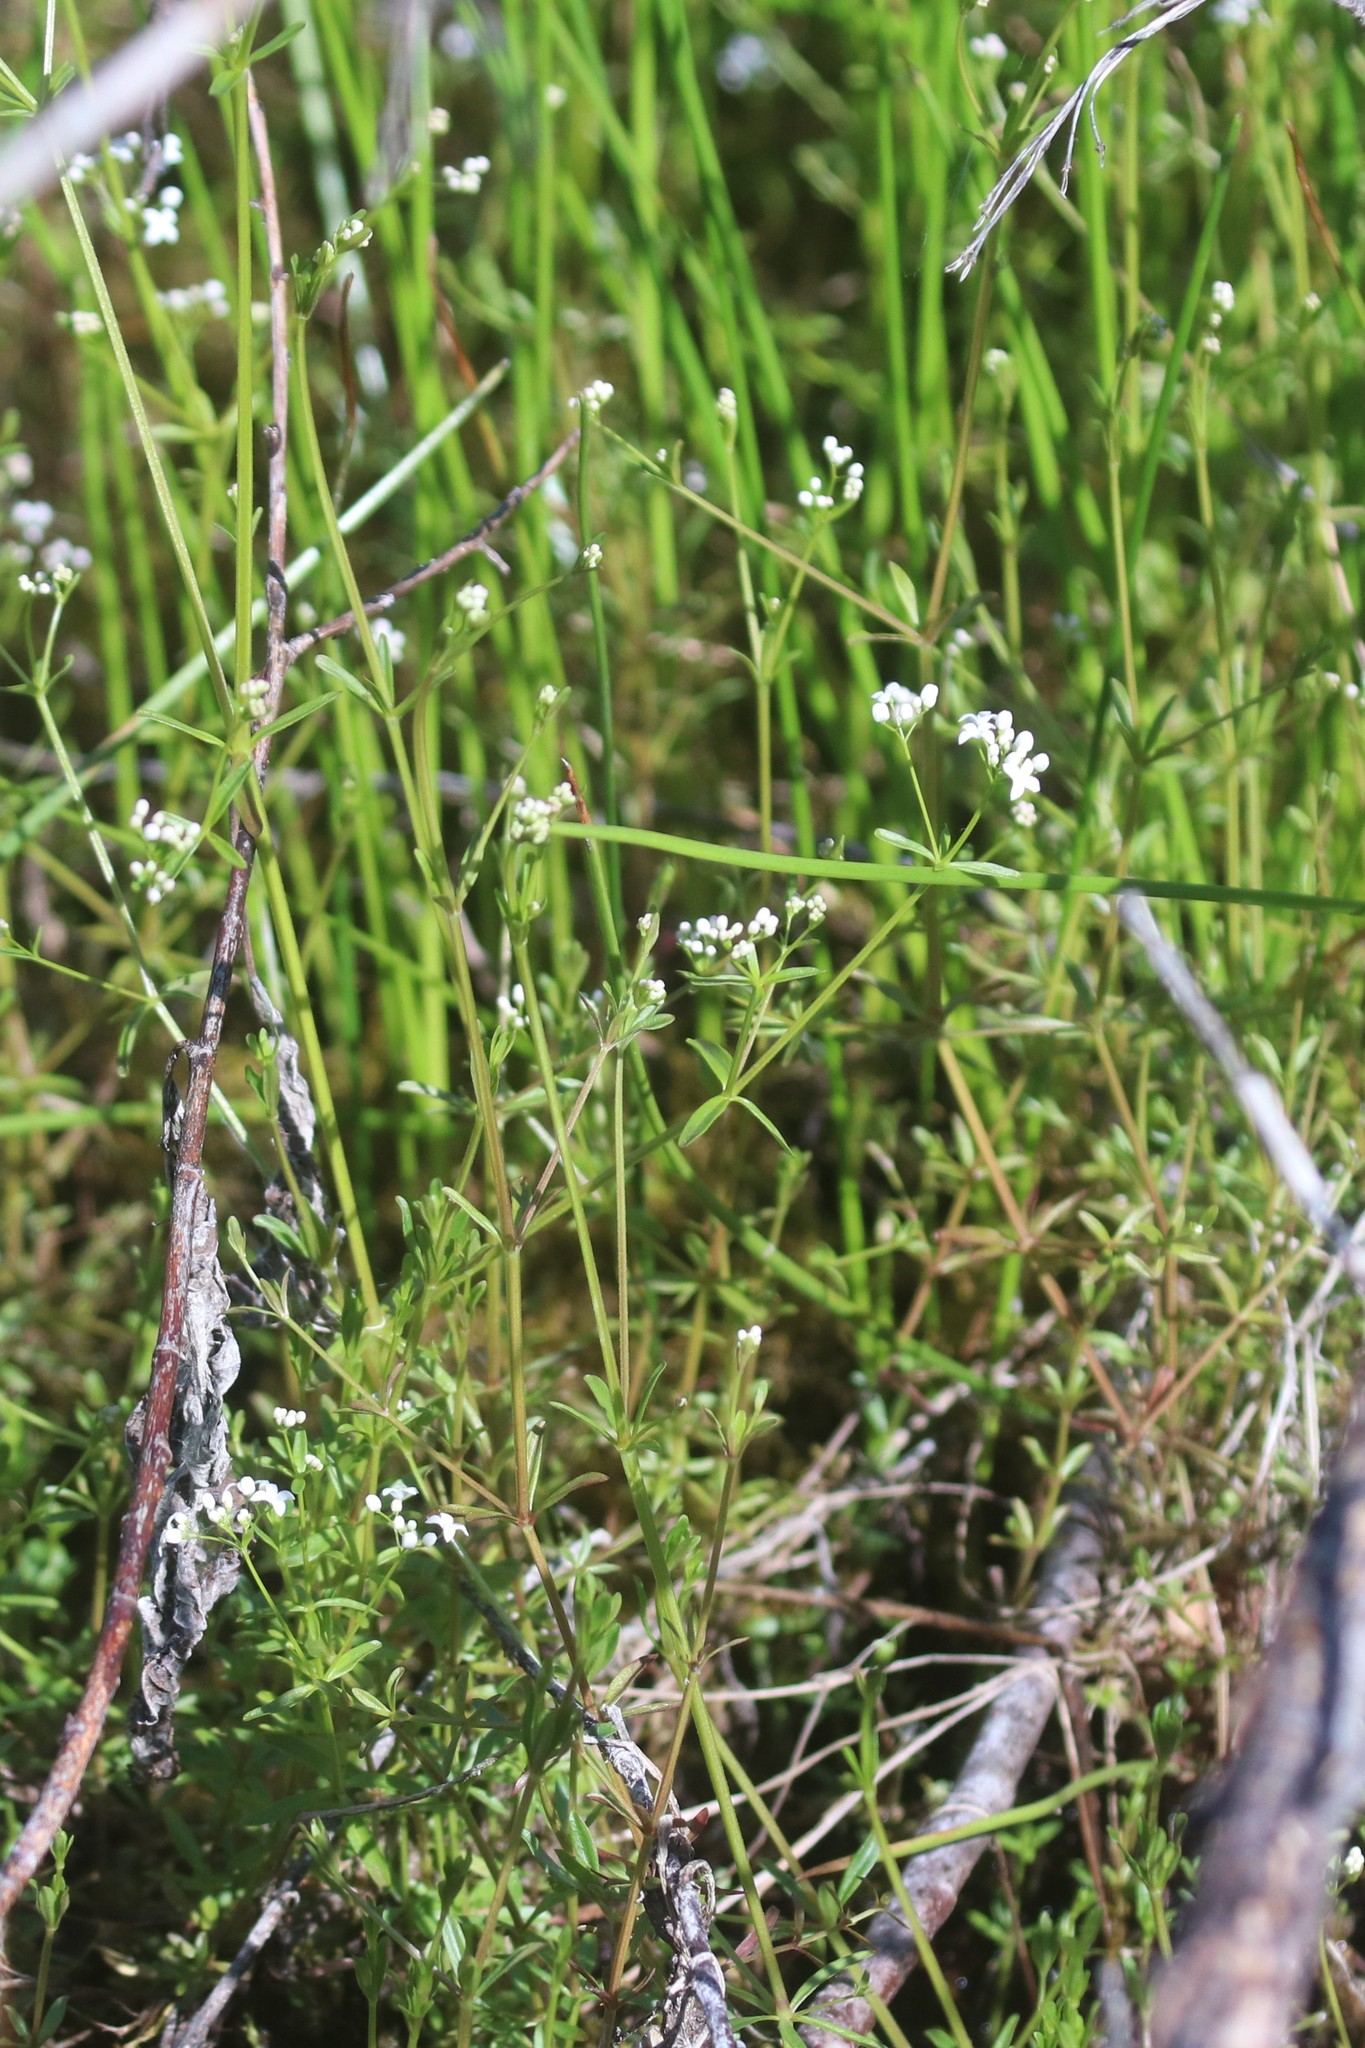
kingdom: Plantae
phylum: Tracheophyta
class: Magnoliopsida
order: Gentianales
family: Rubiaceae
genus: Galium
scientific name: Galium palustre
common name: Common marsh-bedstraw
